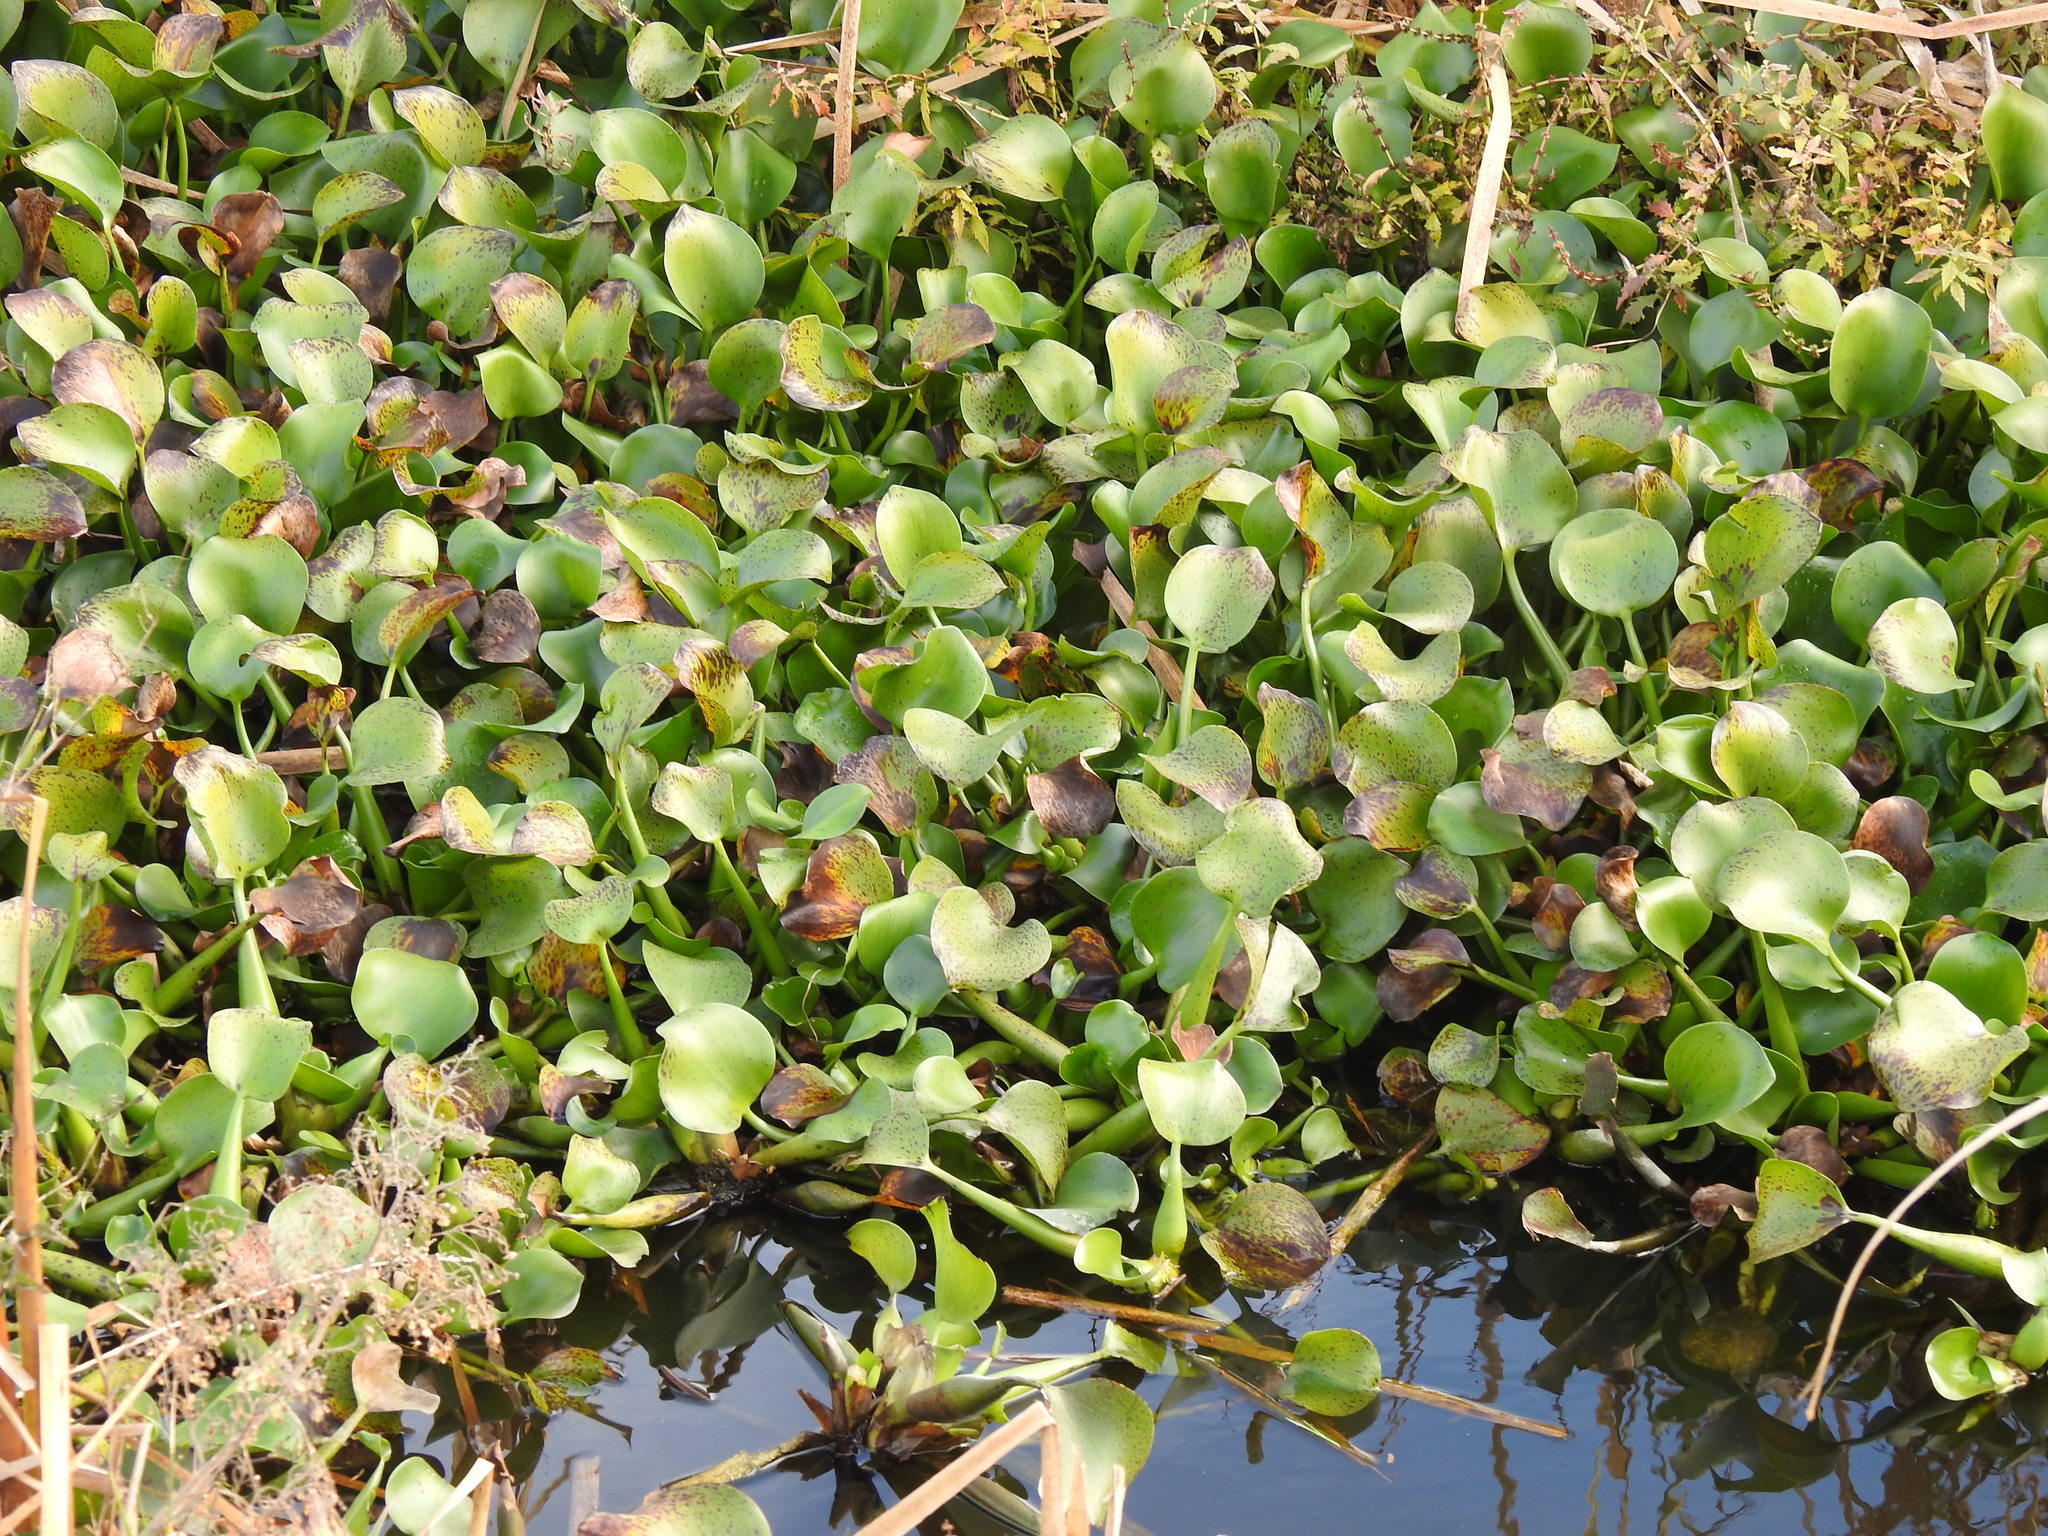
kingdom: Plantae
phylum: Tracheophyta
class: Liliopsida
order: Commelinales
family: Pontederiaceae
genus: Pontederia
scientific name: Pontederia crassipes
